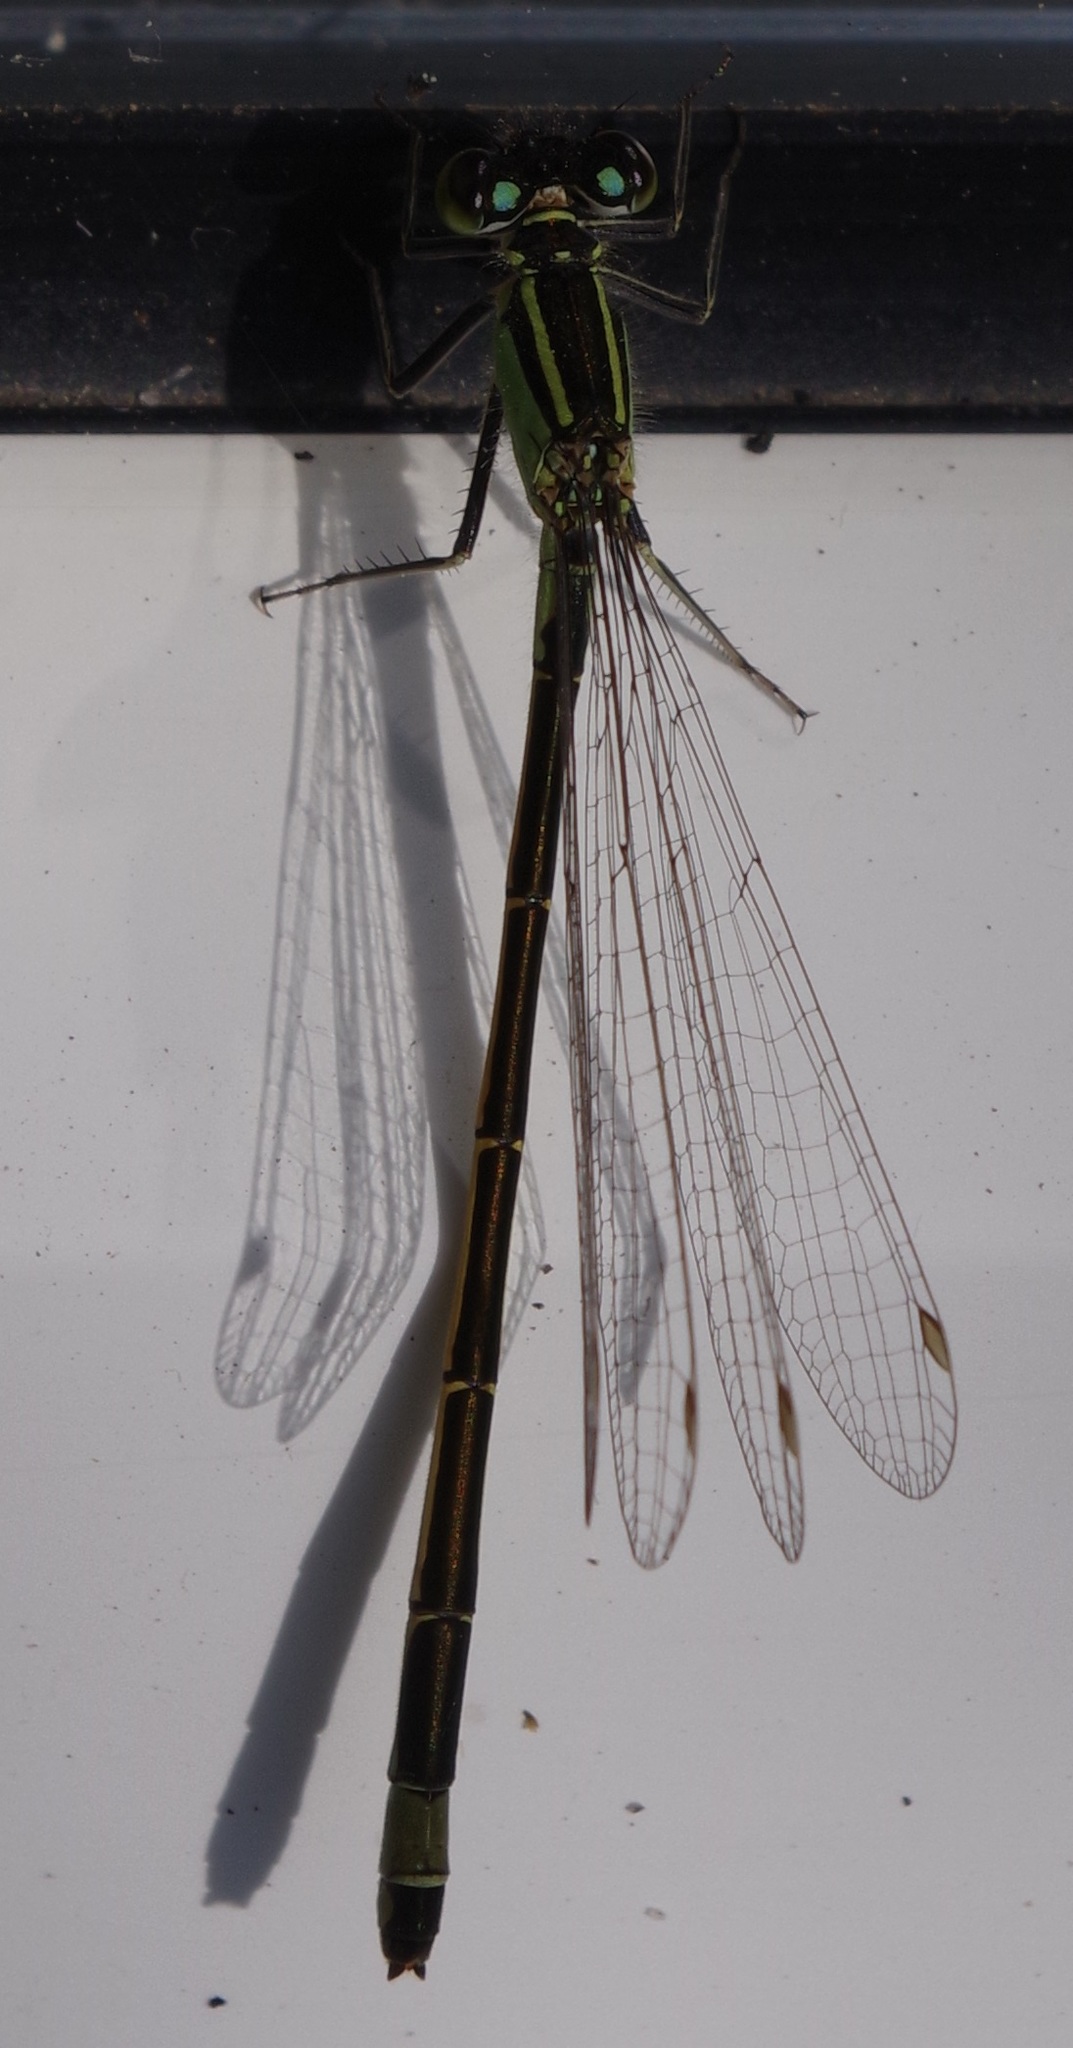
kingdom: Animalia
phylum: Arthropoda
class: Insecta
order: Odonata
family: Coenagrionidae
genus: Ischnura
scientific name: Ischnura elegans
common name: Blue-tailed damselfly
